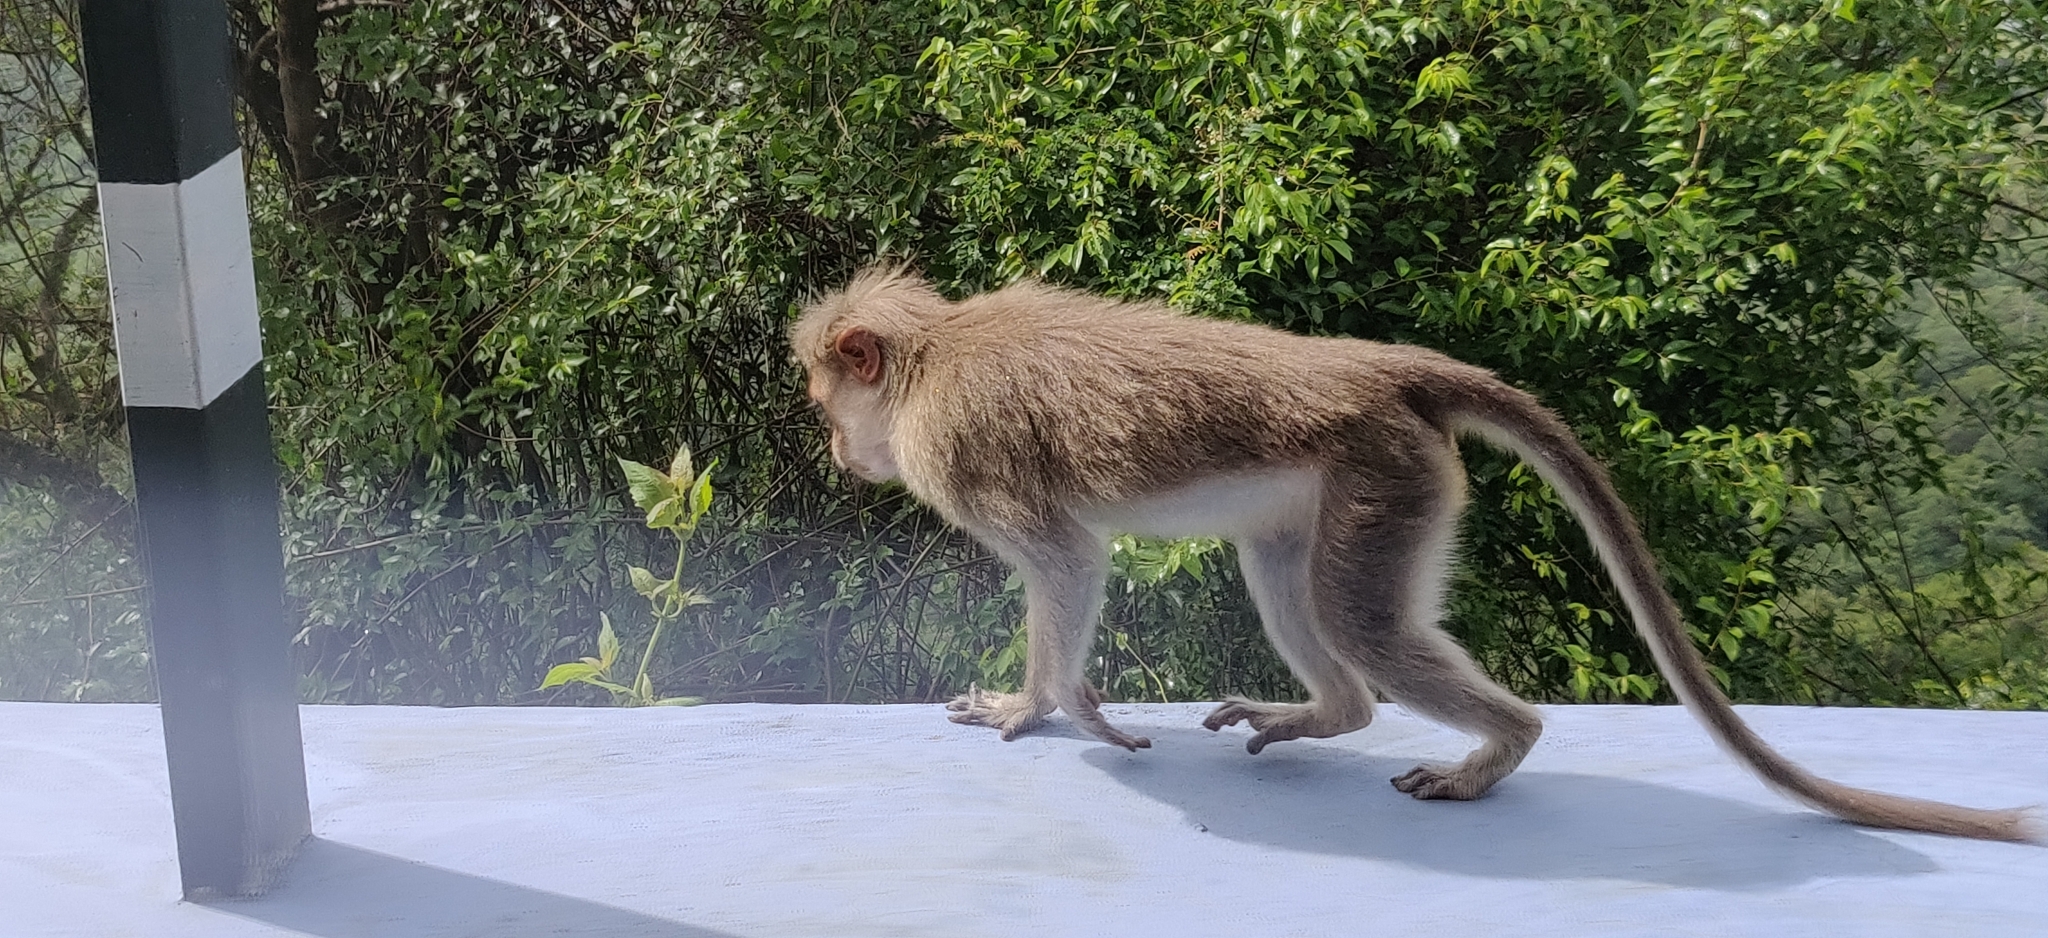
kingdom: Animalia
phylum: Chordata
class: Mammalia
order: Primates
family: Cercopithecidae
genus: Macaca
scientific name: Macaca radiata
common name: Bonnet macaque
